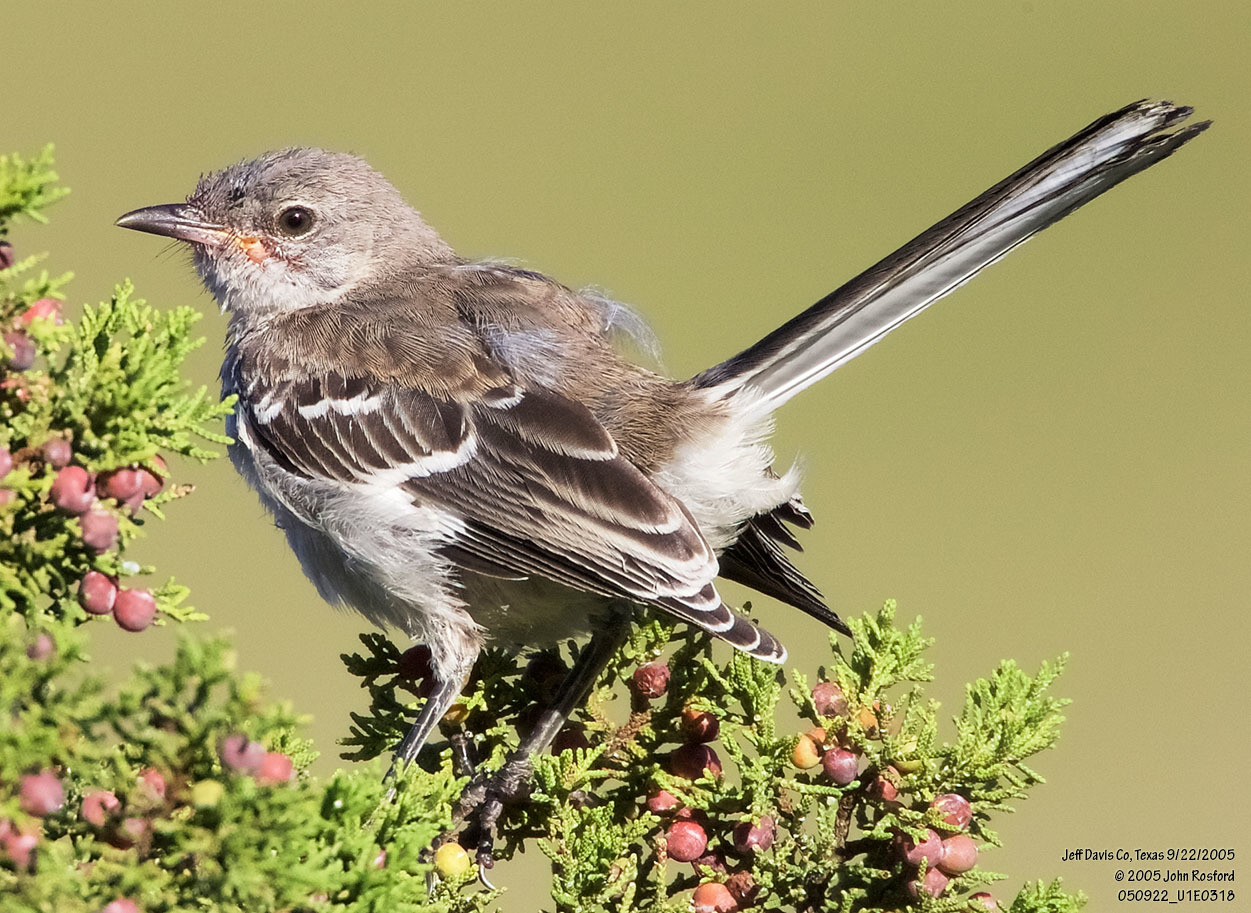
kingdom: Animalia
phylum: Chordata
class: Aves
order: Passeriformes
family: Mimidae
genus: Mimus
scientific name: Mimus polyglottos
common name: Northern mockingbird
